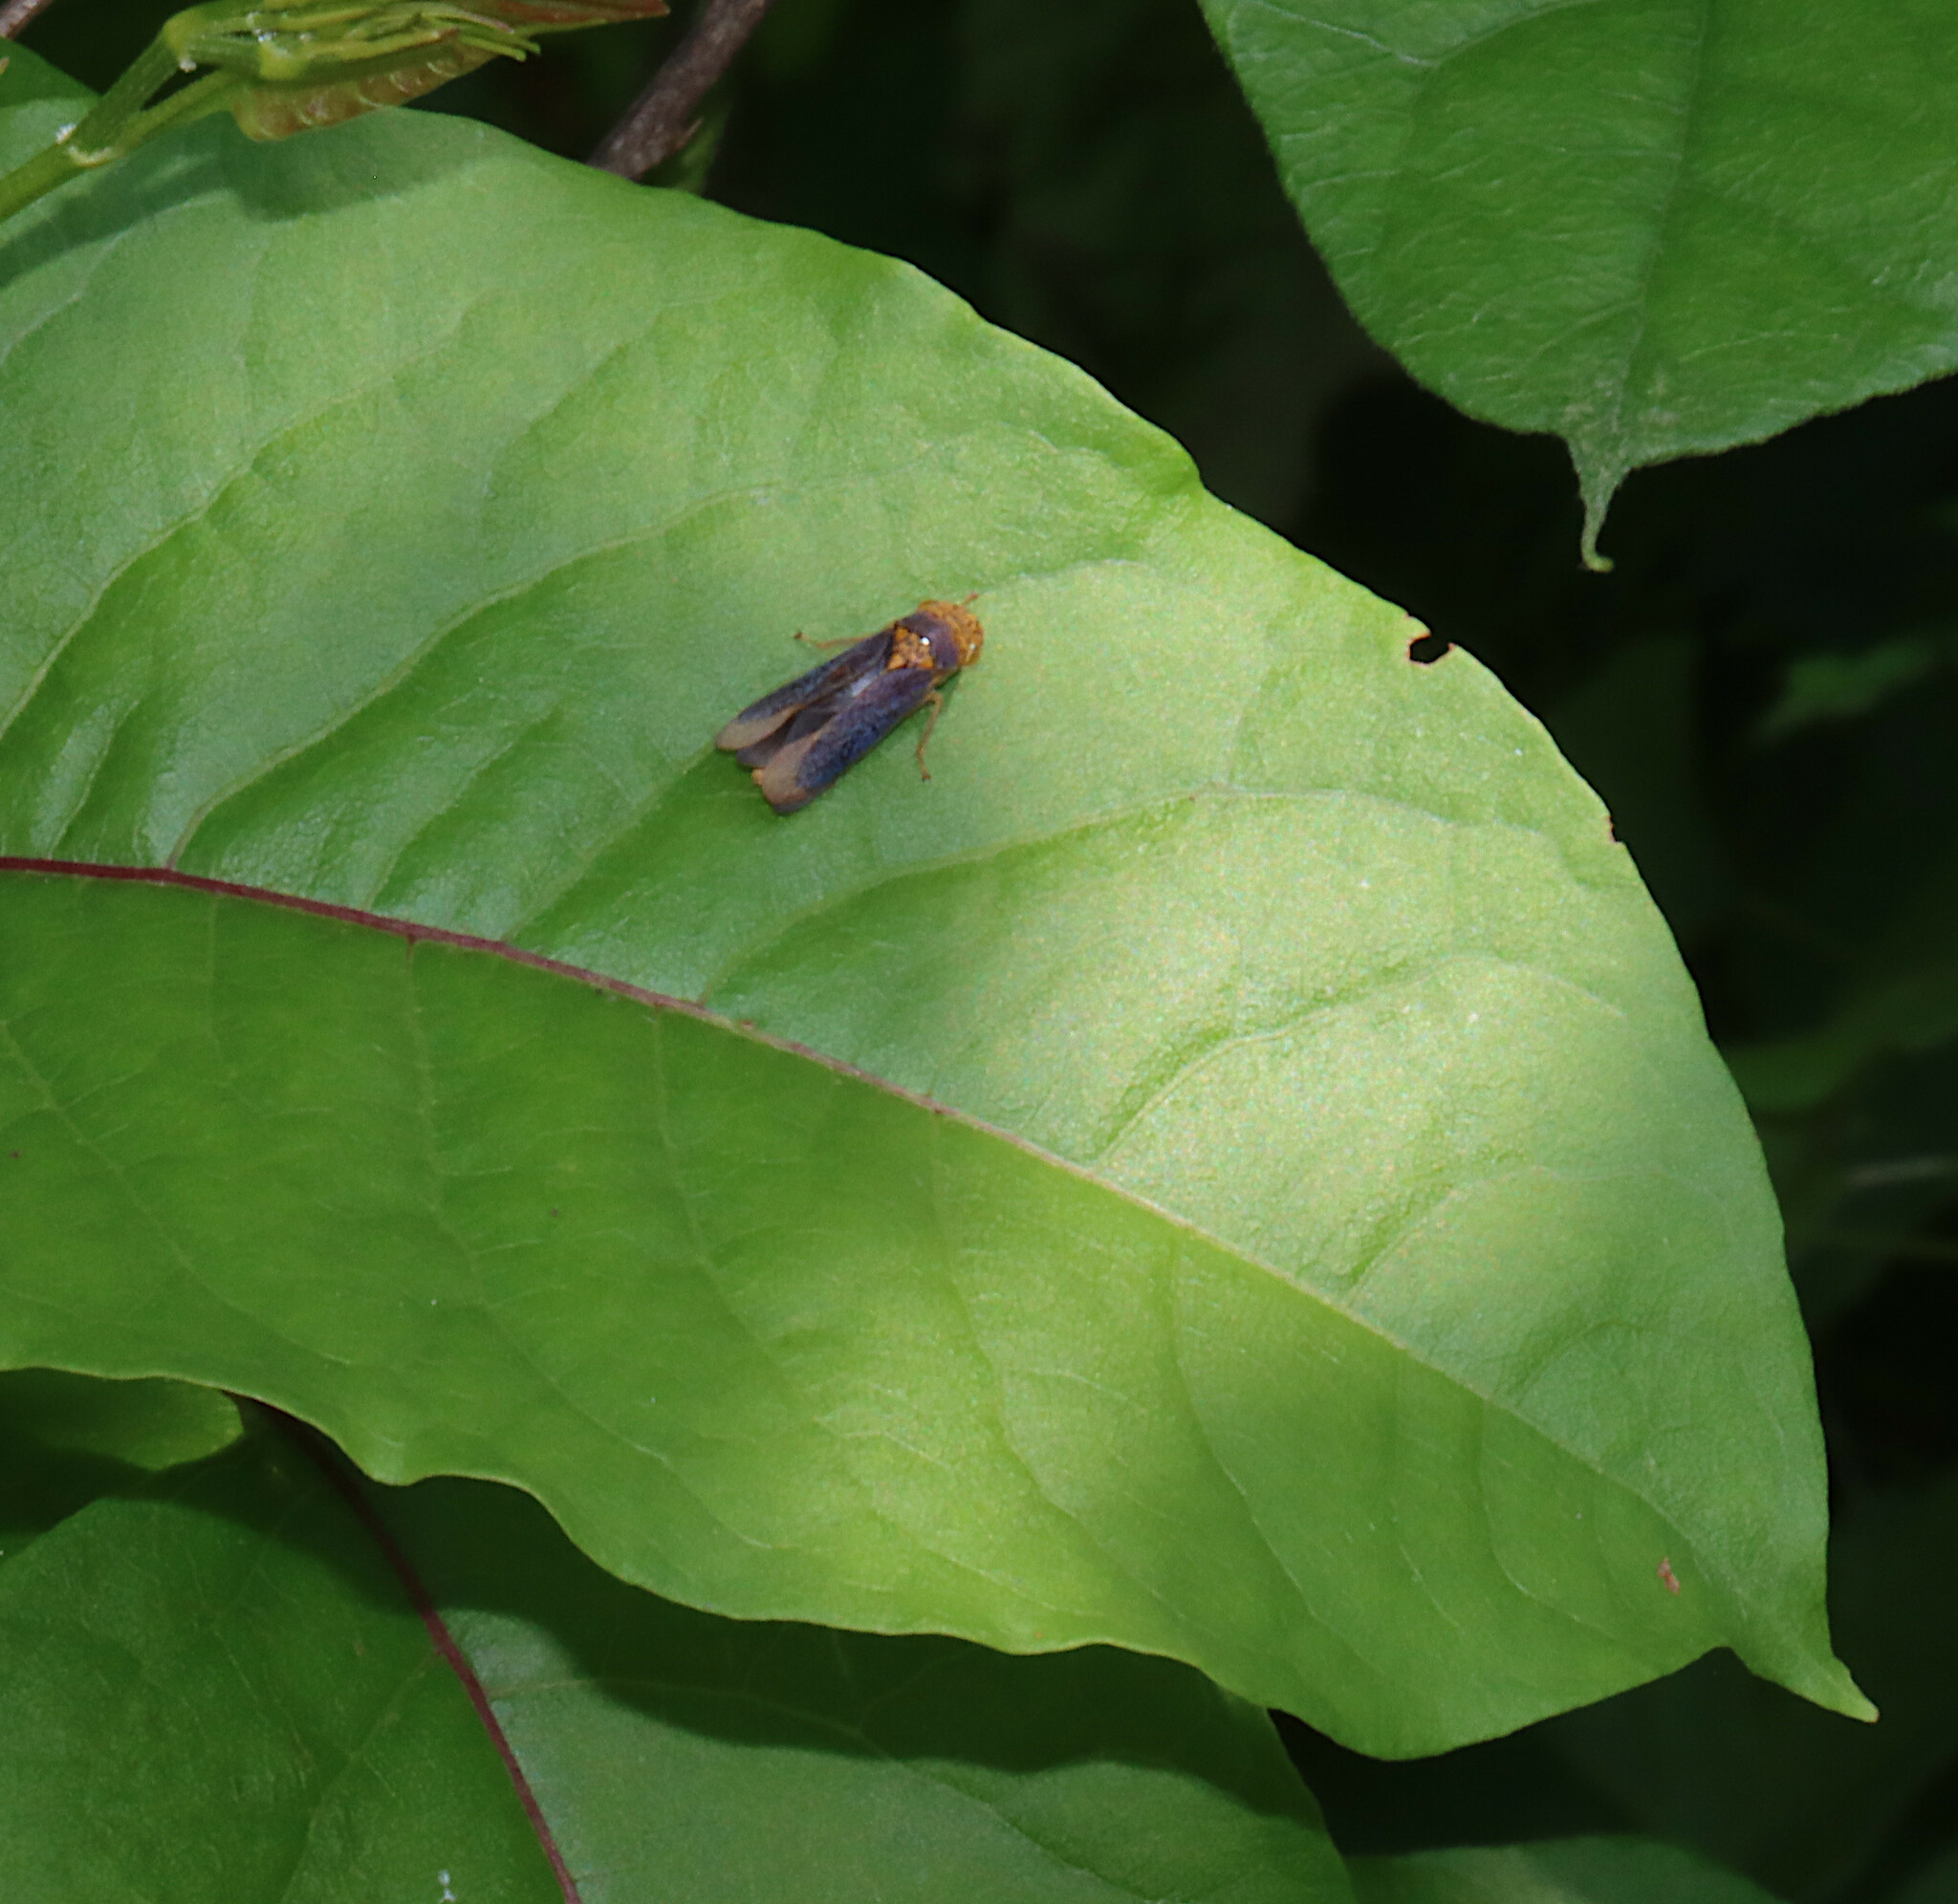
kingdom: Animalia
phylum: Arthropoda
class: Insecta
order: Hemiptera
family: Cicadellidae
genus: Oncometopia
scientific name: Oncometopia orbona
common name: Broad-headed sharpshooter
